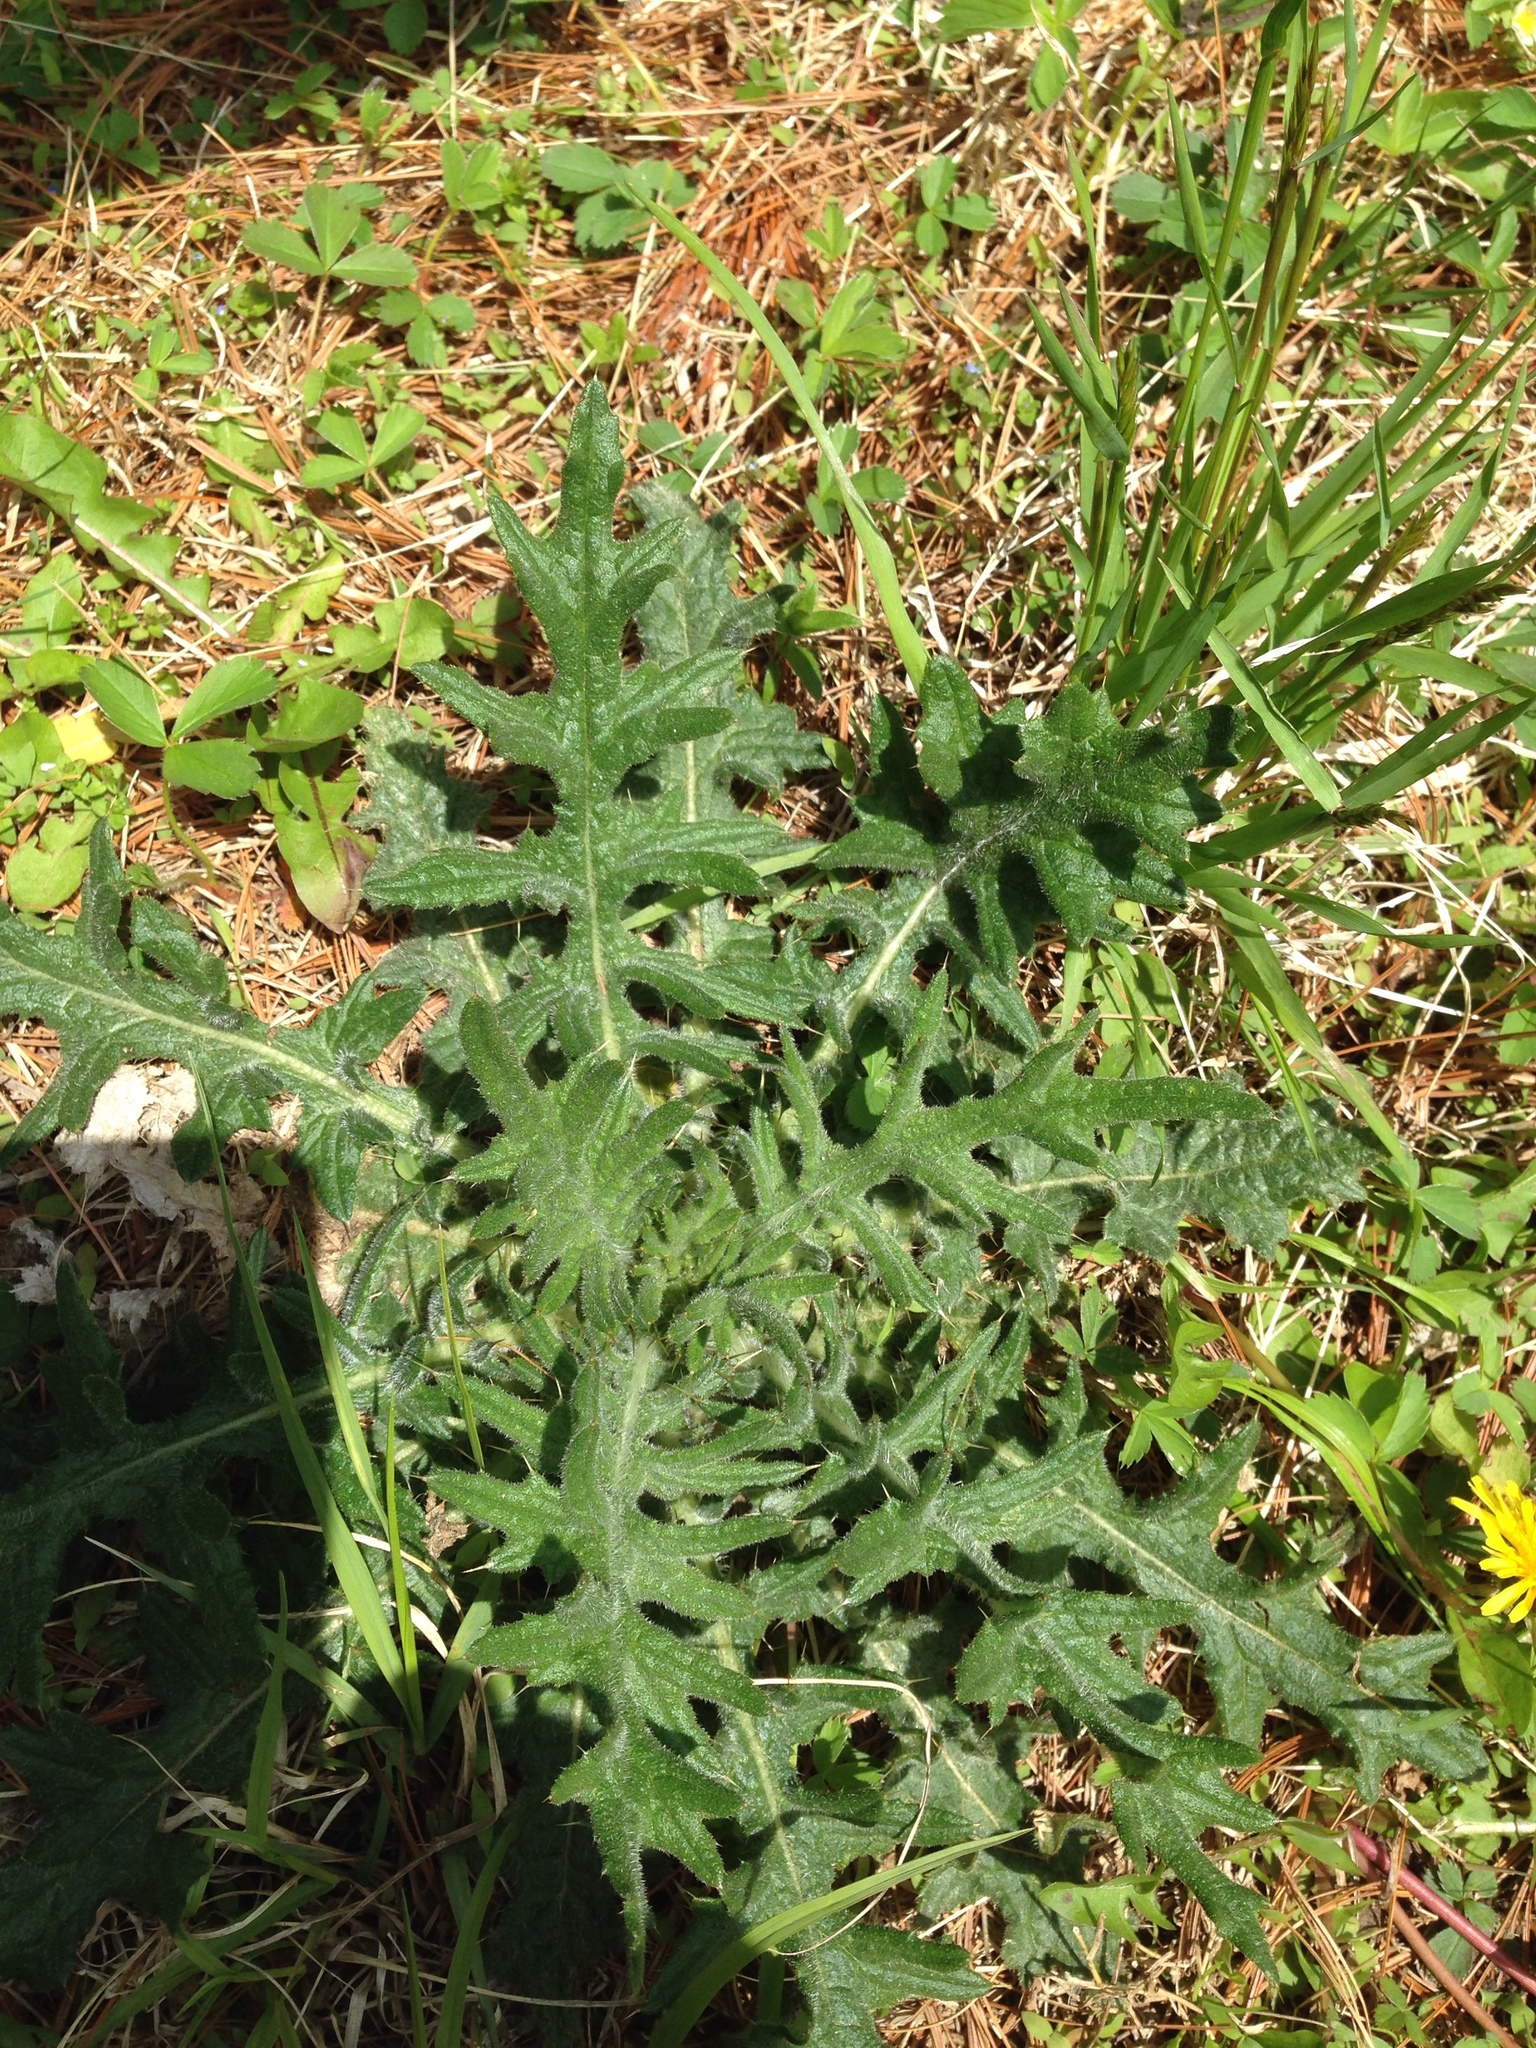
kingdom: Plantae
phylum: Tracheophyta
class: Magnoliopsida
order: Asterales
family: Asteraceae
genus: Cirsium
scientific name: Cirsium vulgare
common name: Bull thistle
